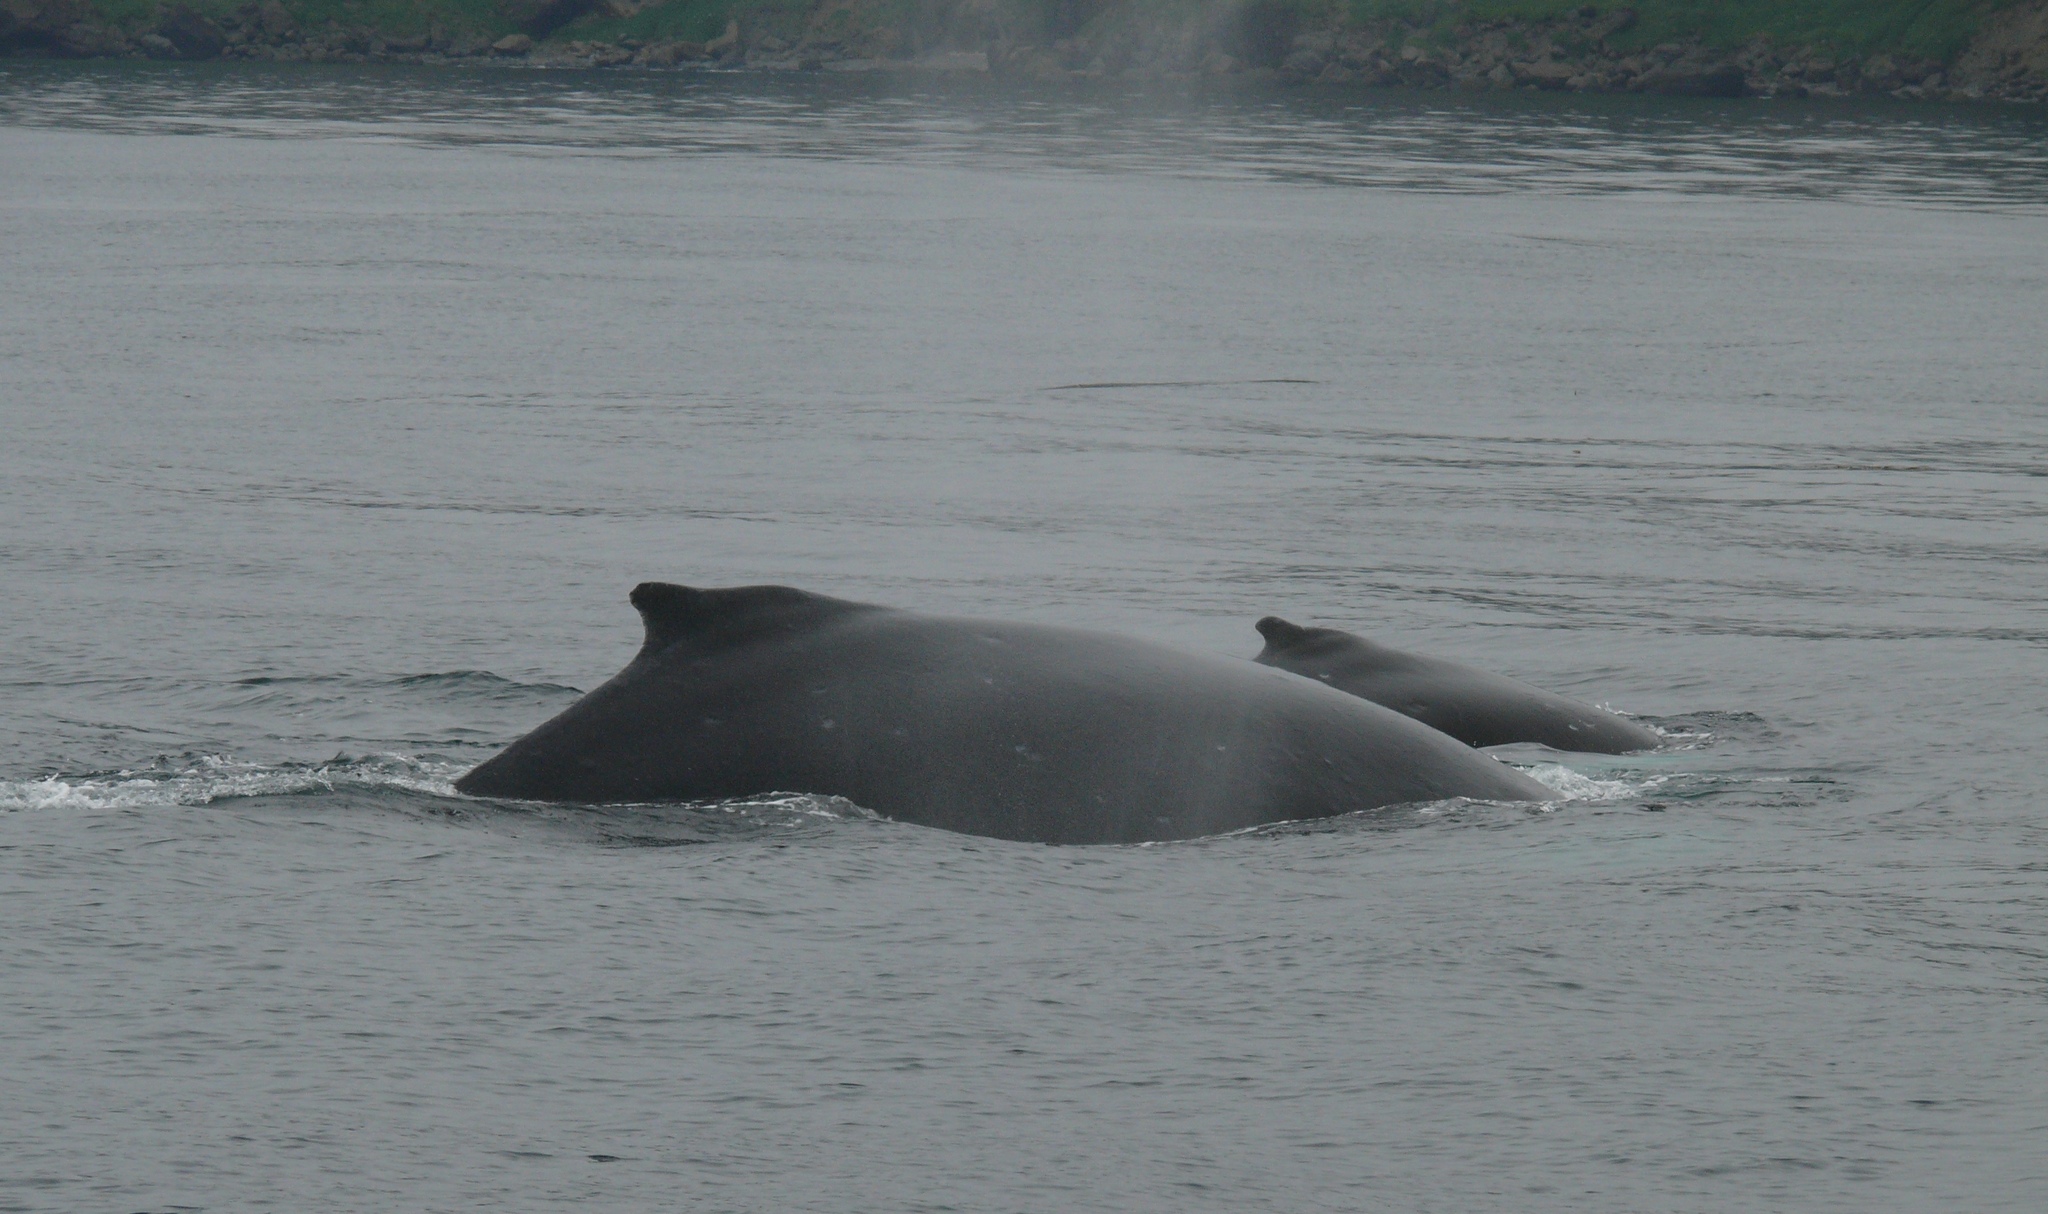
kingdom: Animalia
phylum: Chordata
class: Mammalia
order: Cetacea
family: Balaenopteridae
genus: Megaptera
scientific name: Megaptera novaeangliae
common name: Humpback whale
